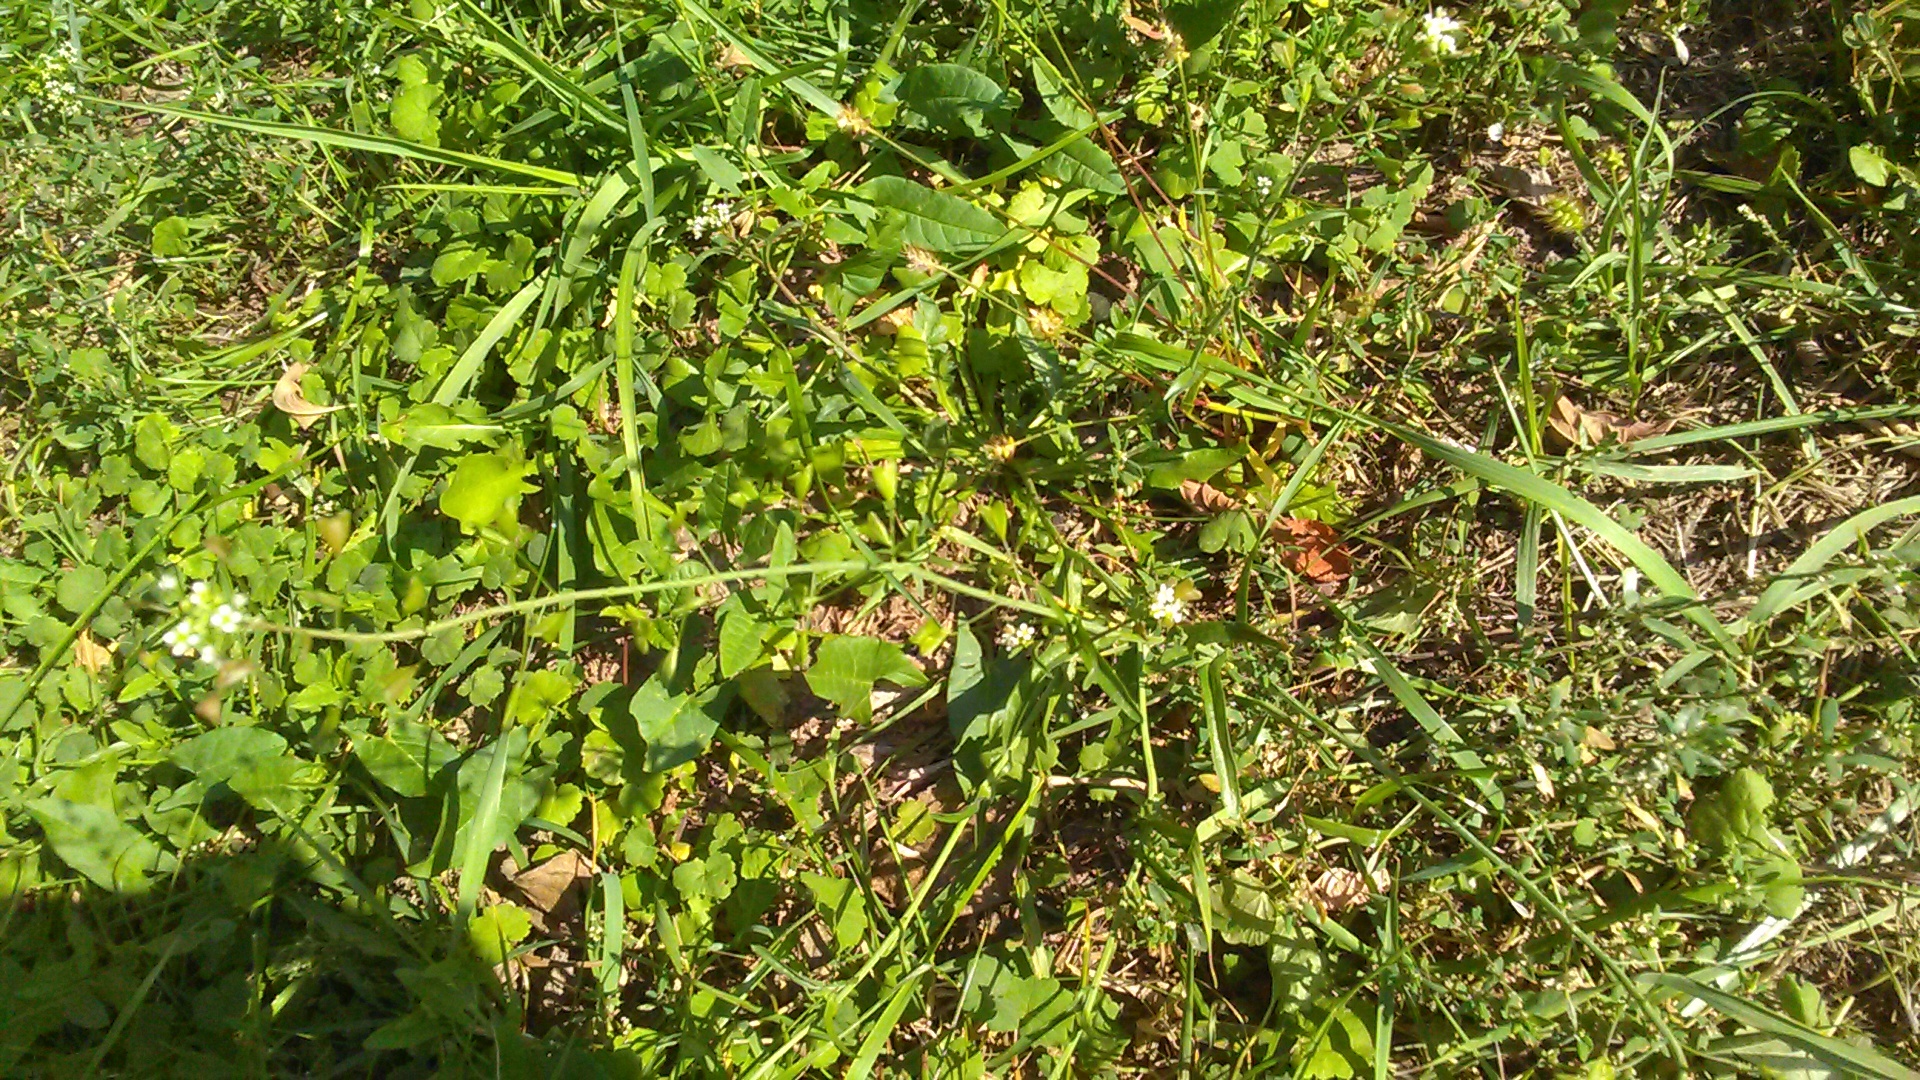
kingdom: Plantae
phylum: Tracheophyta
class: Magnoliopsida
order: Brassicales
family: Brassicaceae
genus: Capsella
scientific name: Capsella bursa-pastoris
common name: Shepherd's purse
